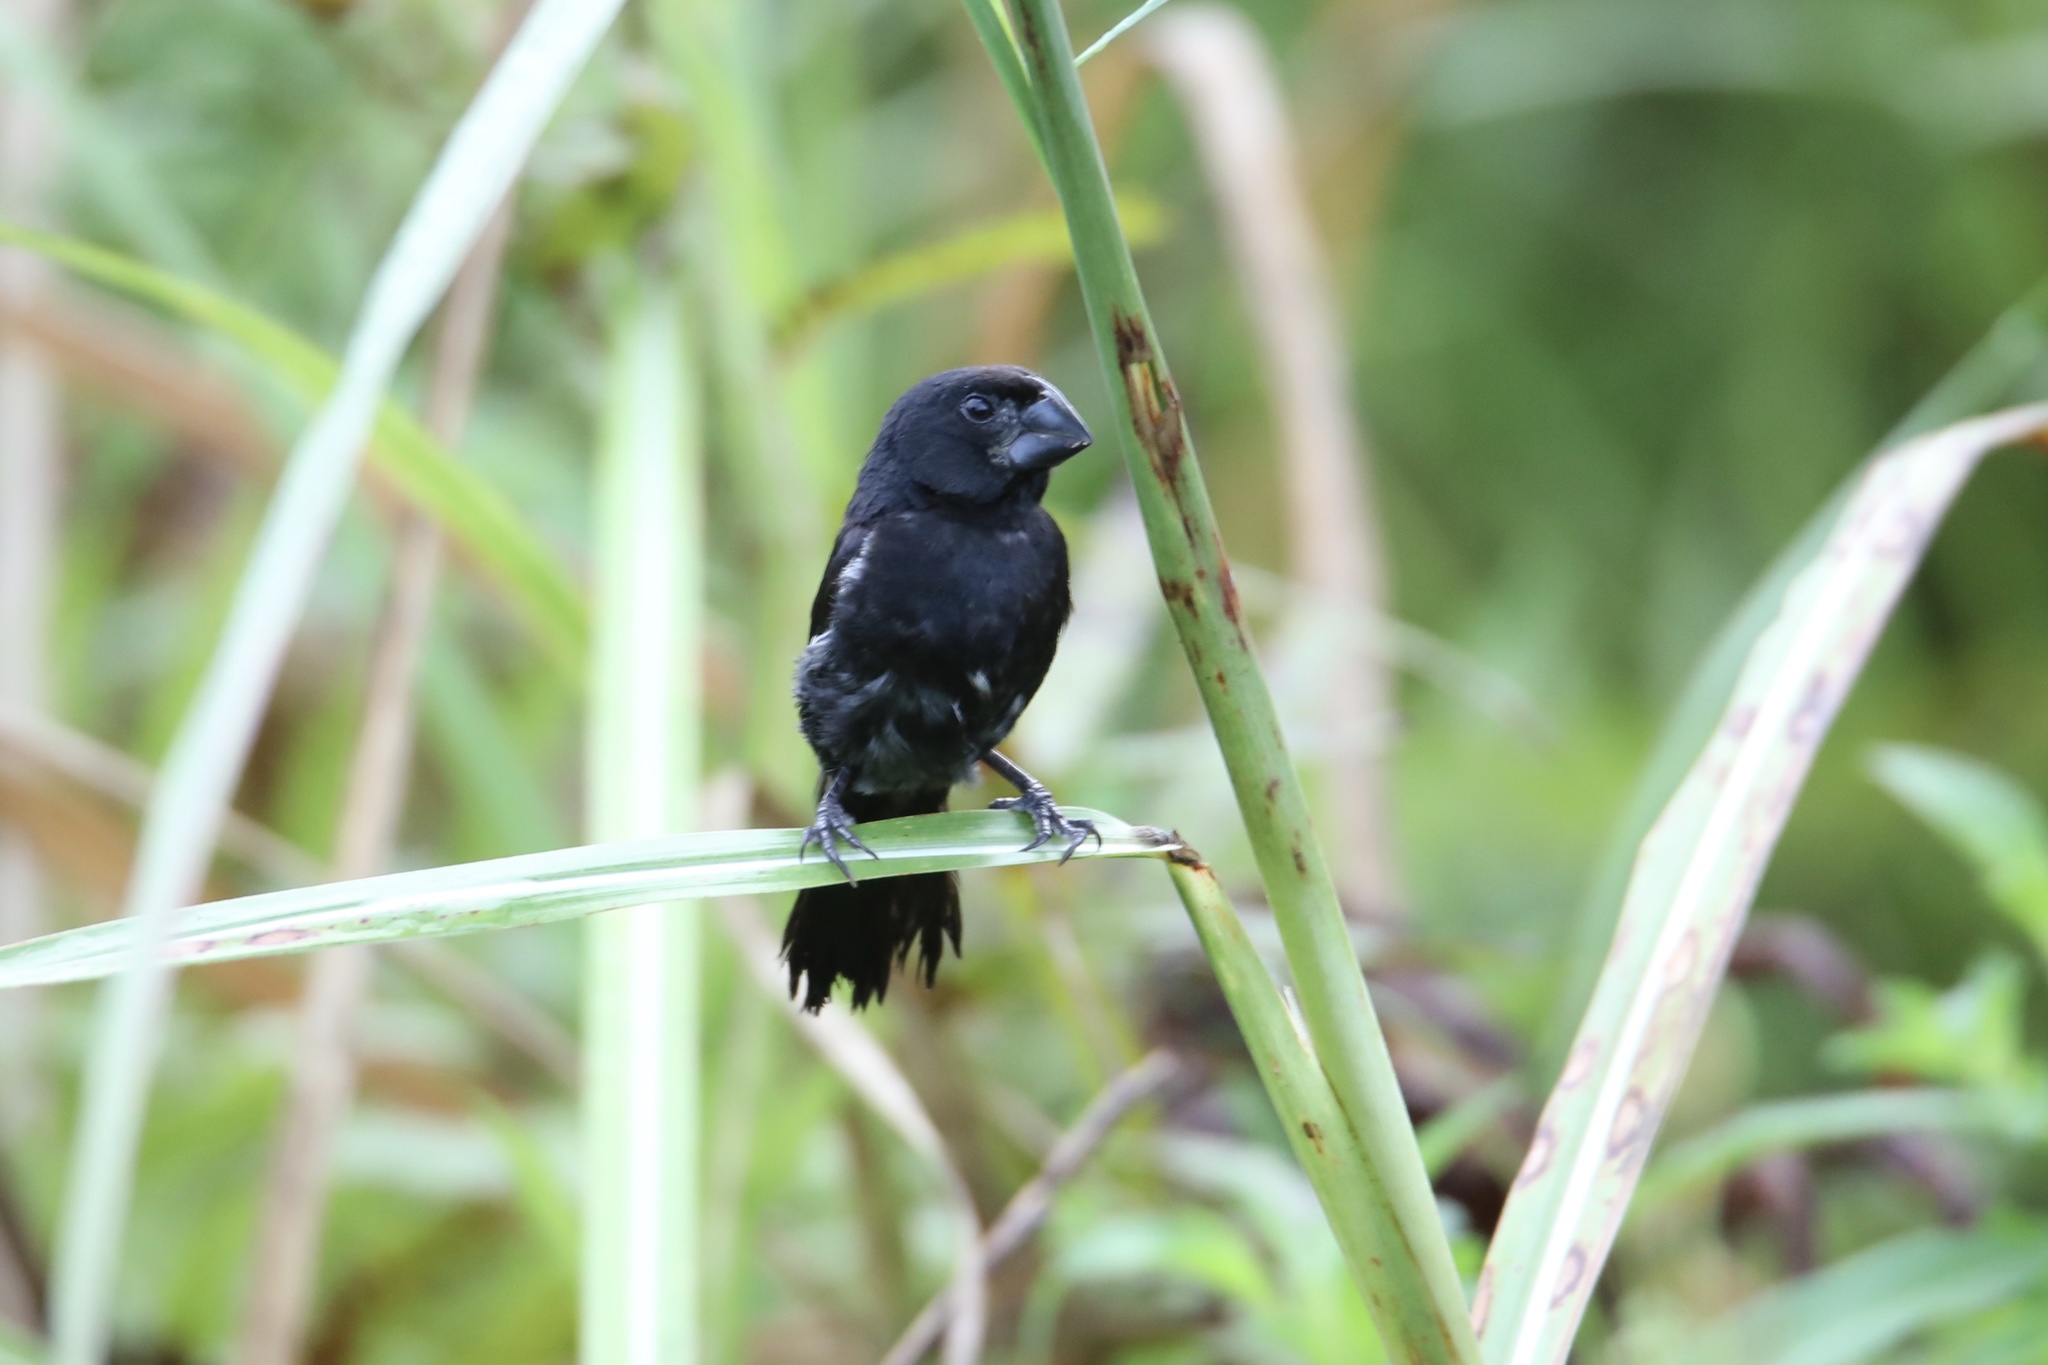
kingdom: Animalia
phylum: Chordata
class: Aves
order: Passeriformes
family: Thraupidae
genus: Sporophila
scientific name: Sporophila funerea
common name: Thick-billed seed-finch
